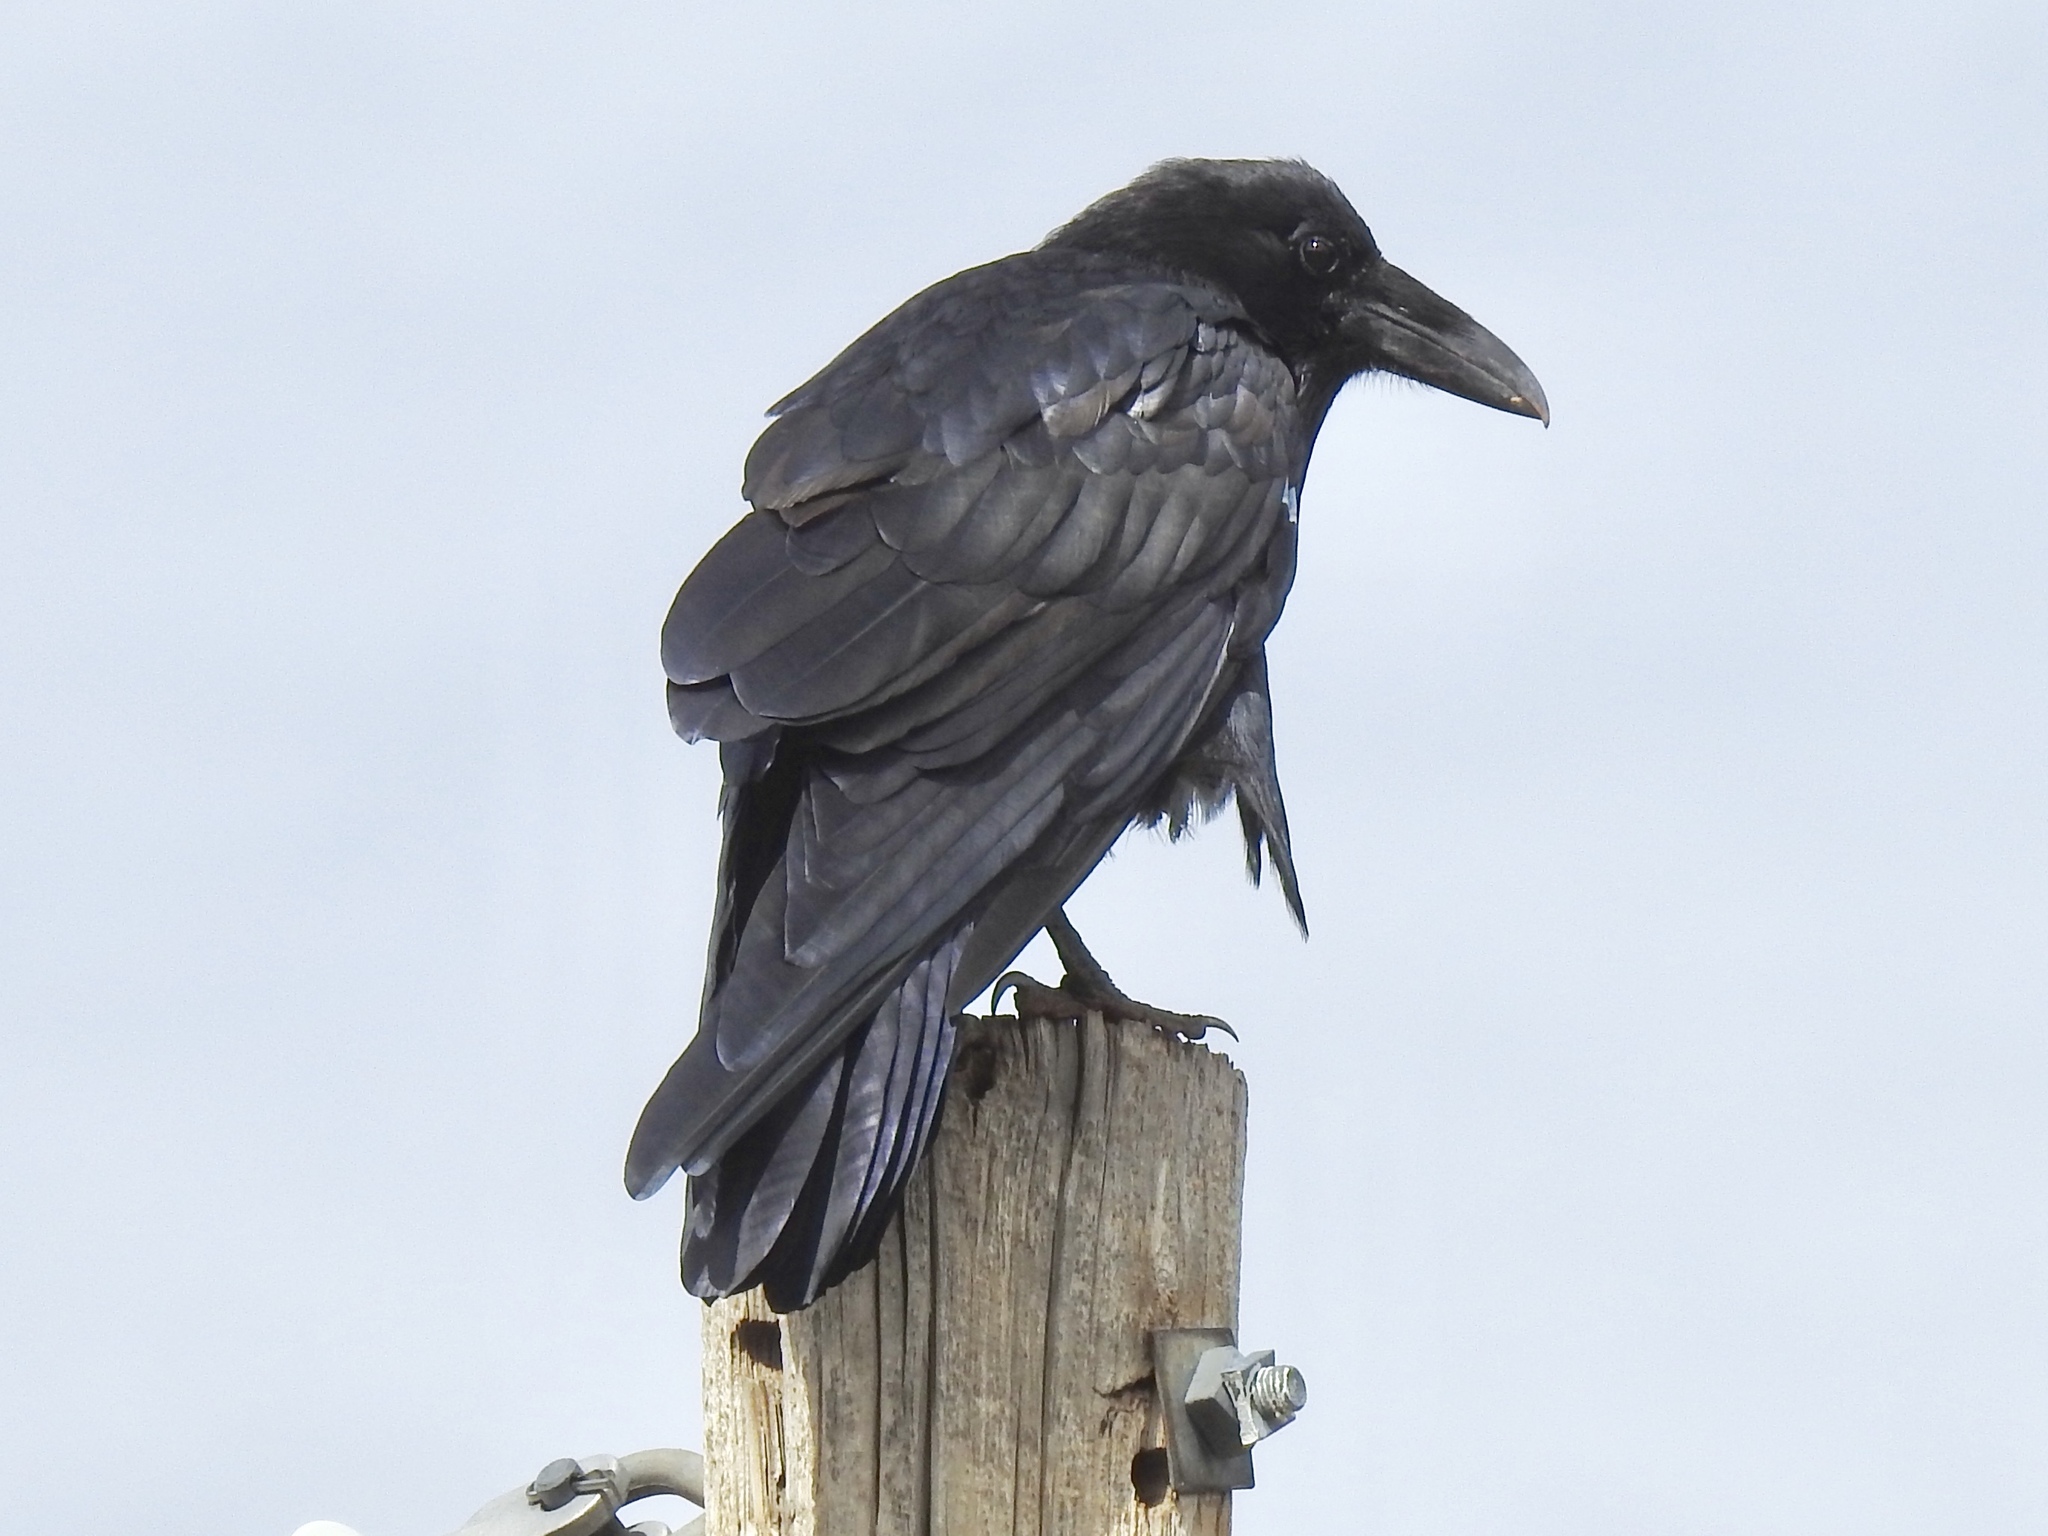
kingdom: Animalia
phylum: Chordata
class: Aves
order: Passeriformes
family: Corvidae
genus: Corvus
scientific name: Corvus corax
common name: Common raven
